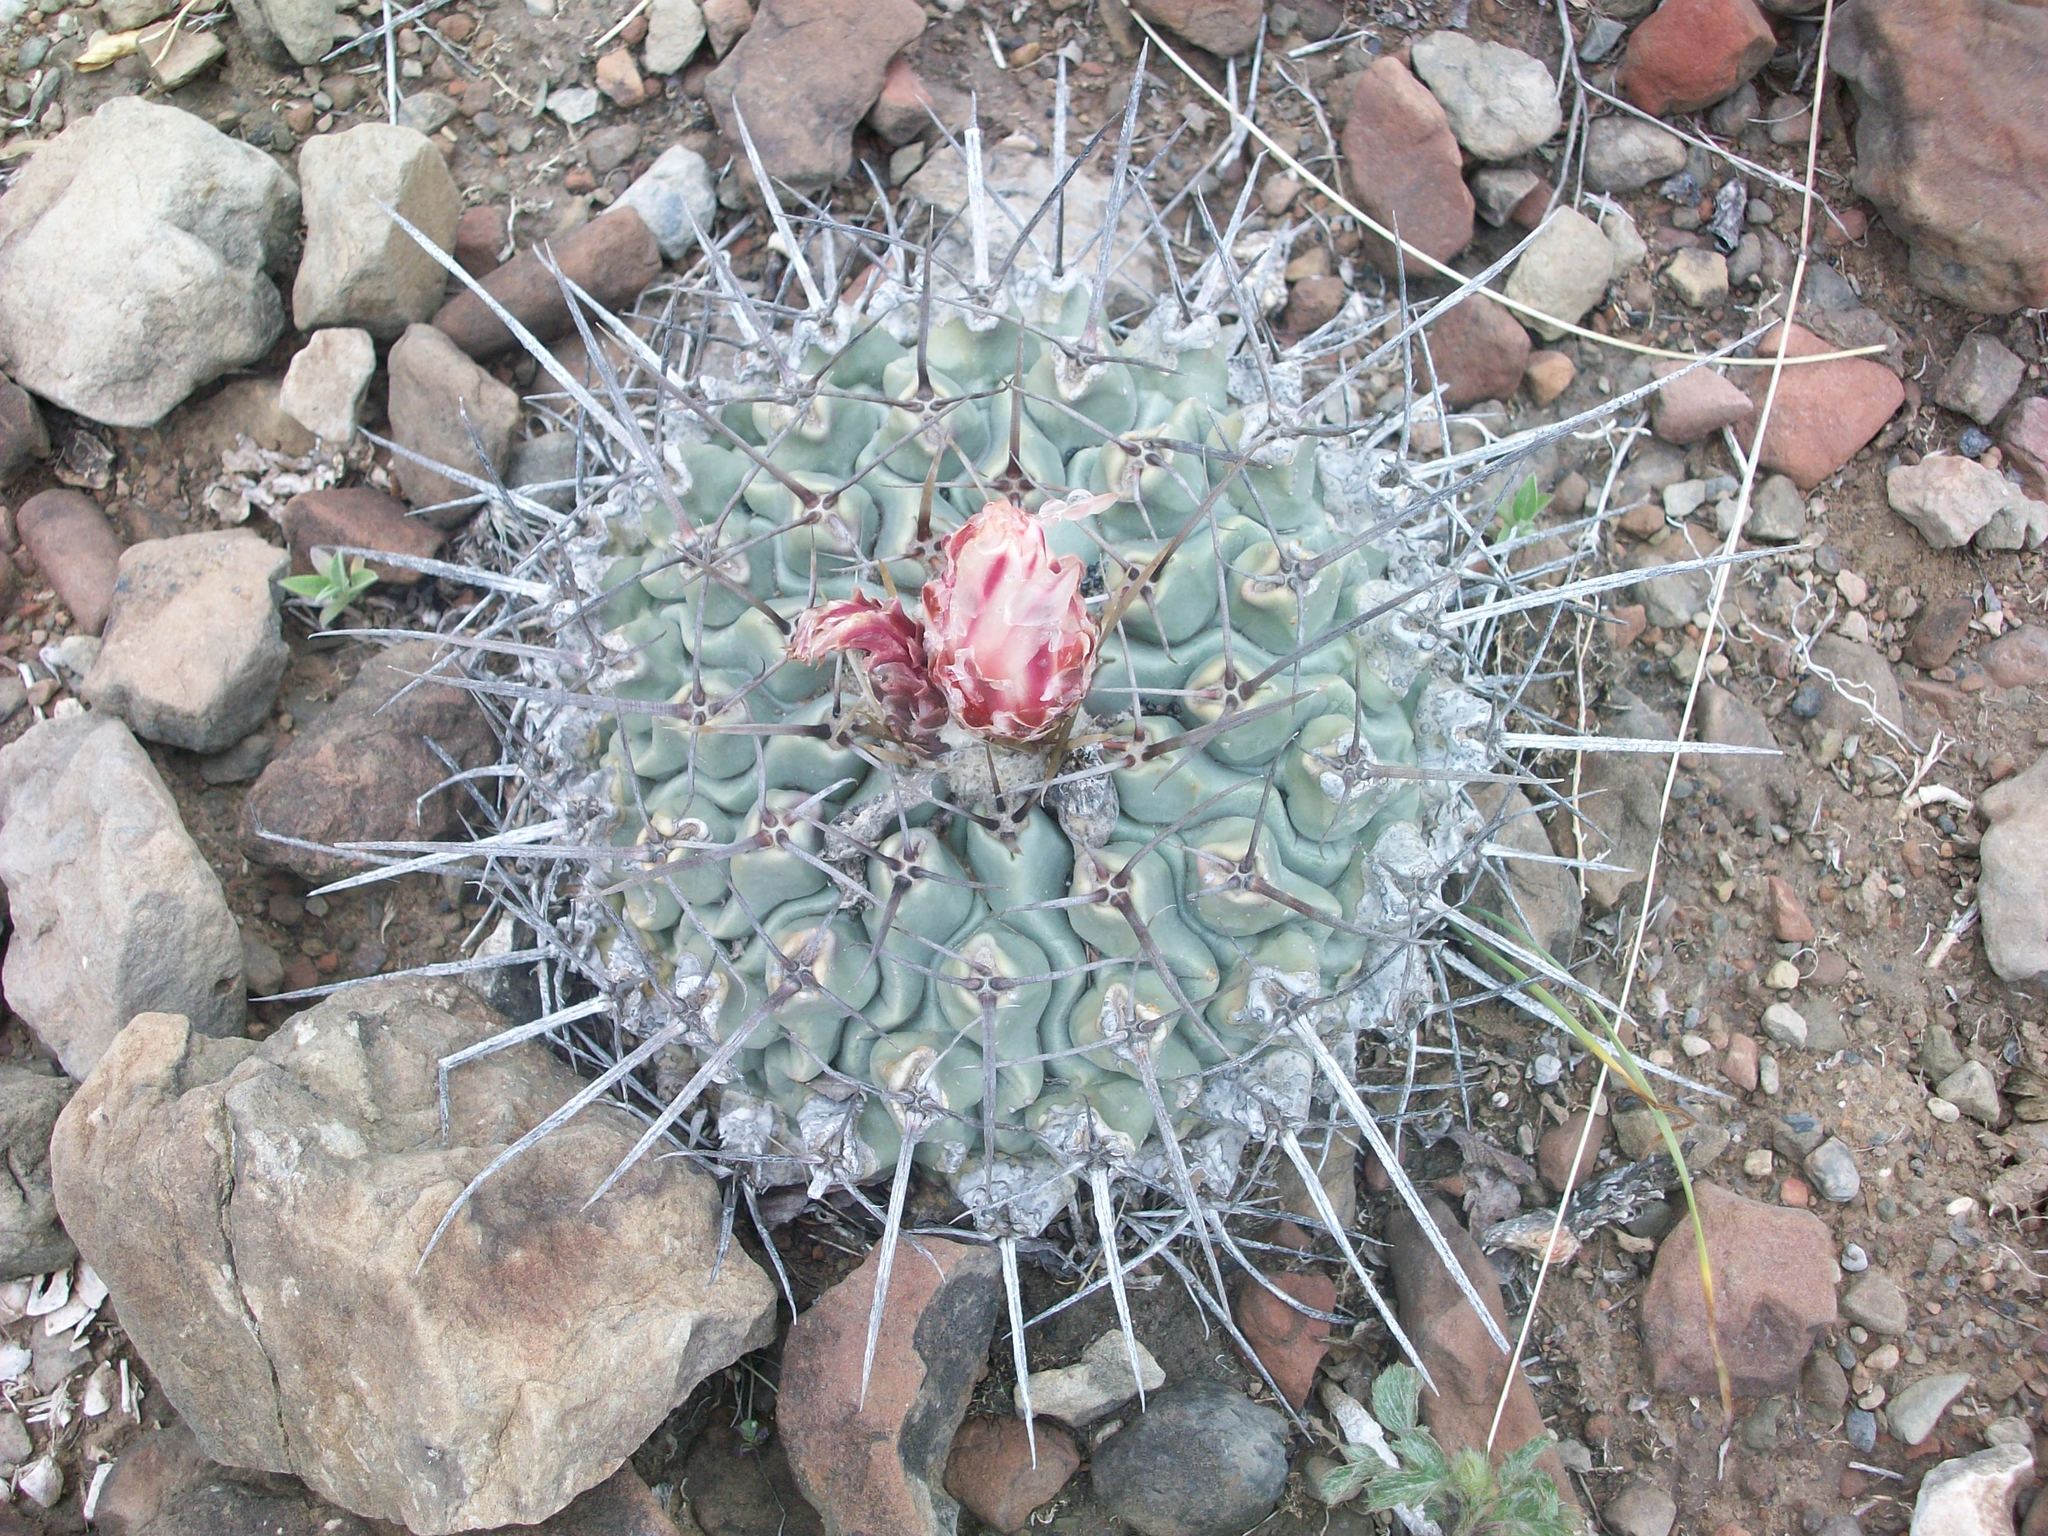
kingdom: Plantae
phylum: Tracheophyta
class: Magnoliopsida
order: Caryophyllales
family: Cactaceae
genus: Thelocactus
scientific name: Thelocactus rinconensis
